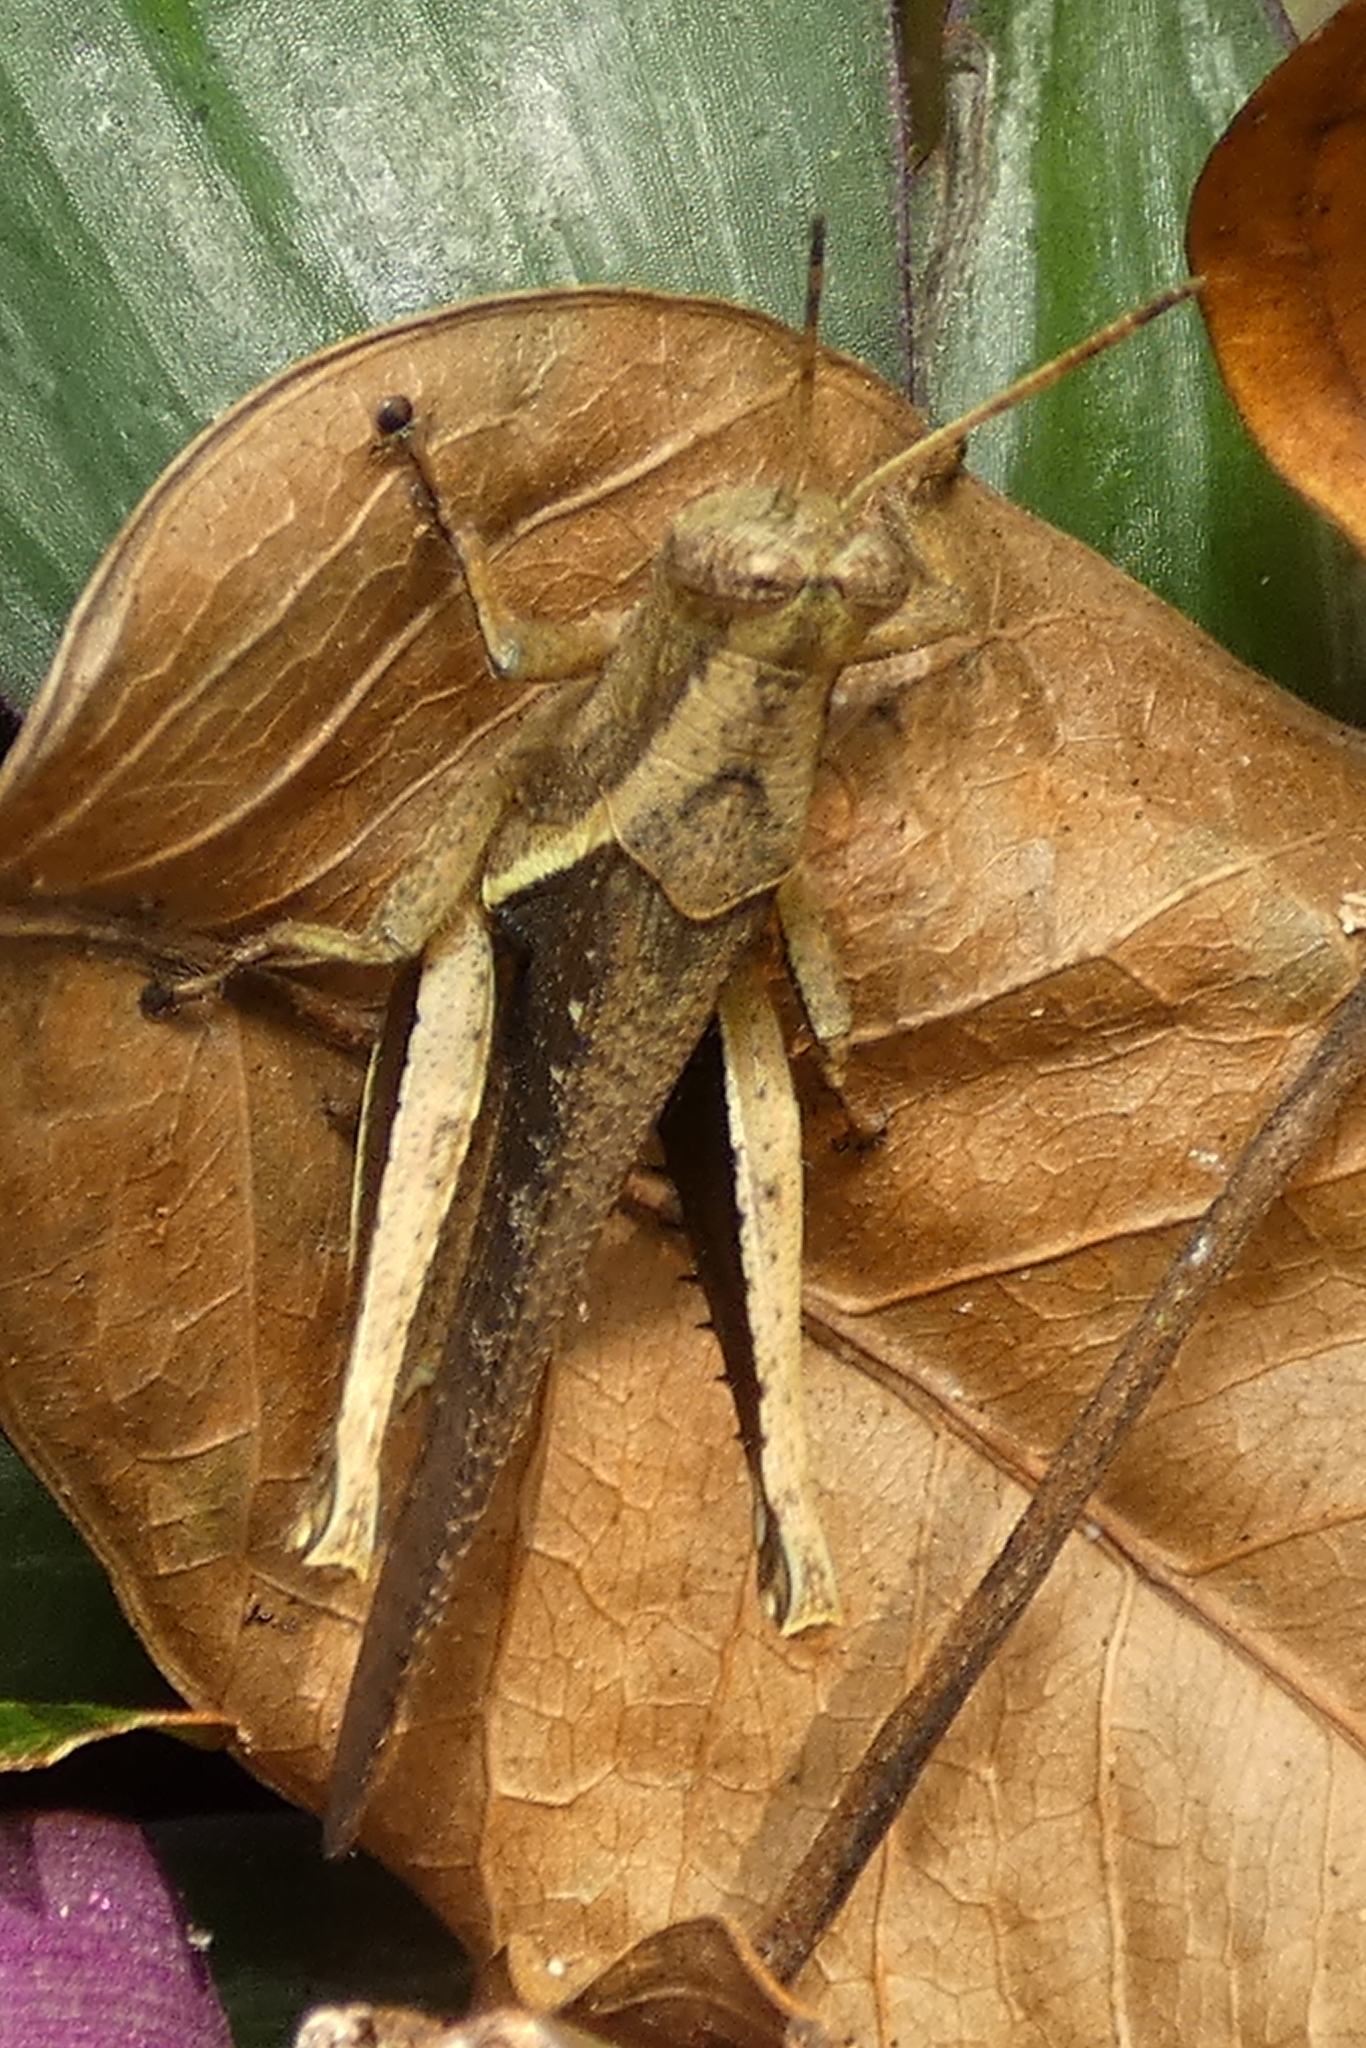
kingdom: Animalia
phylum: Arthropoda
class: Insecta
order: Orthoptera
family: Acrididae
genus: Abracris
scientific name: Abracris flavolineata
